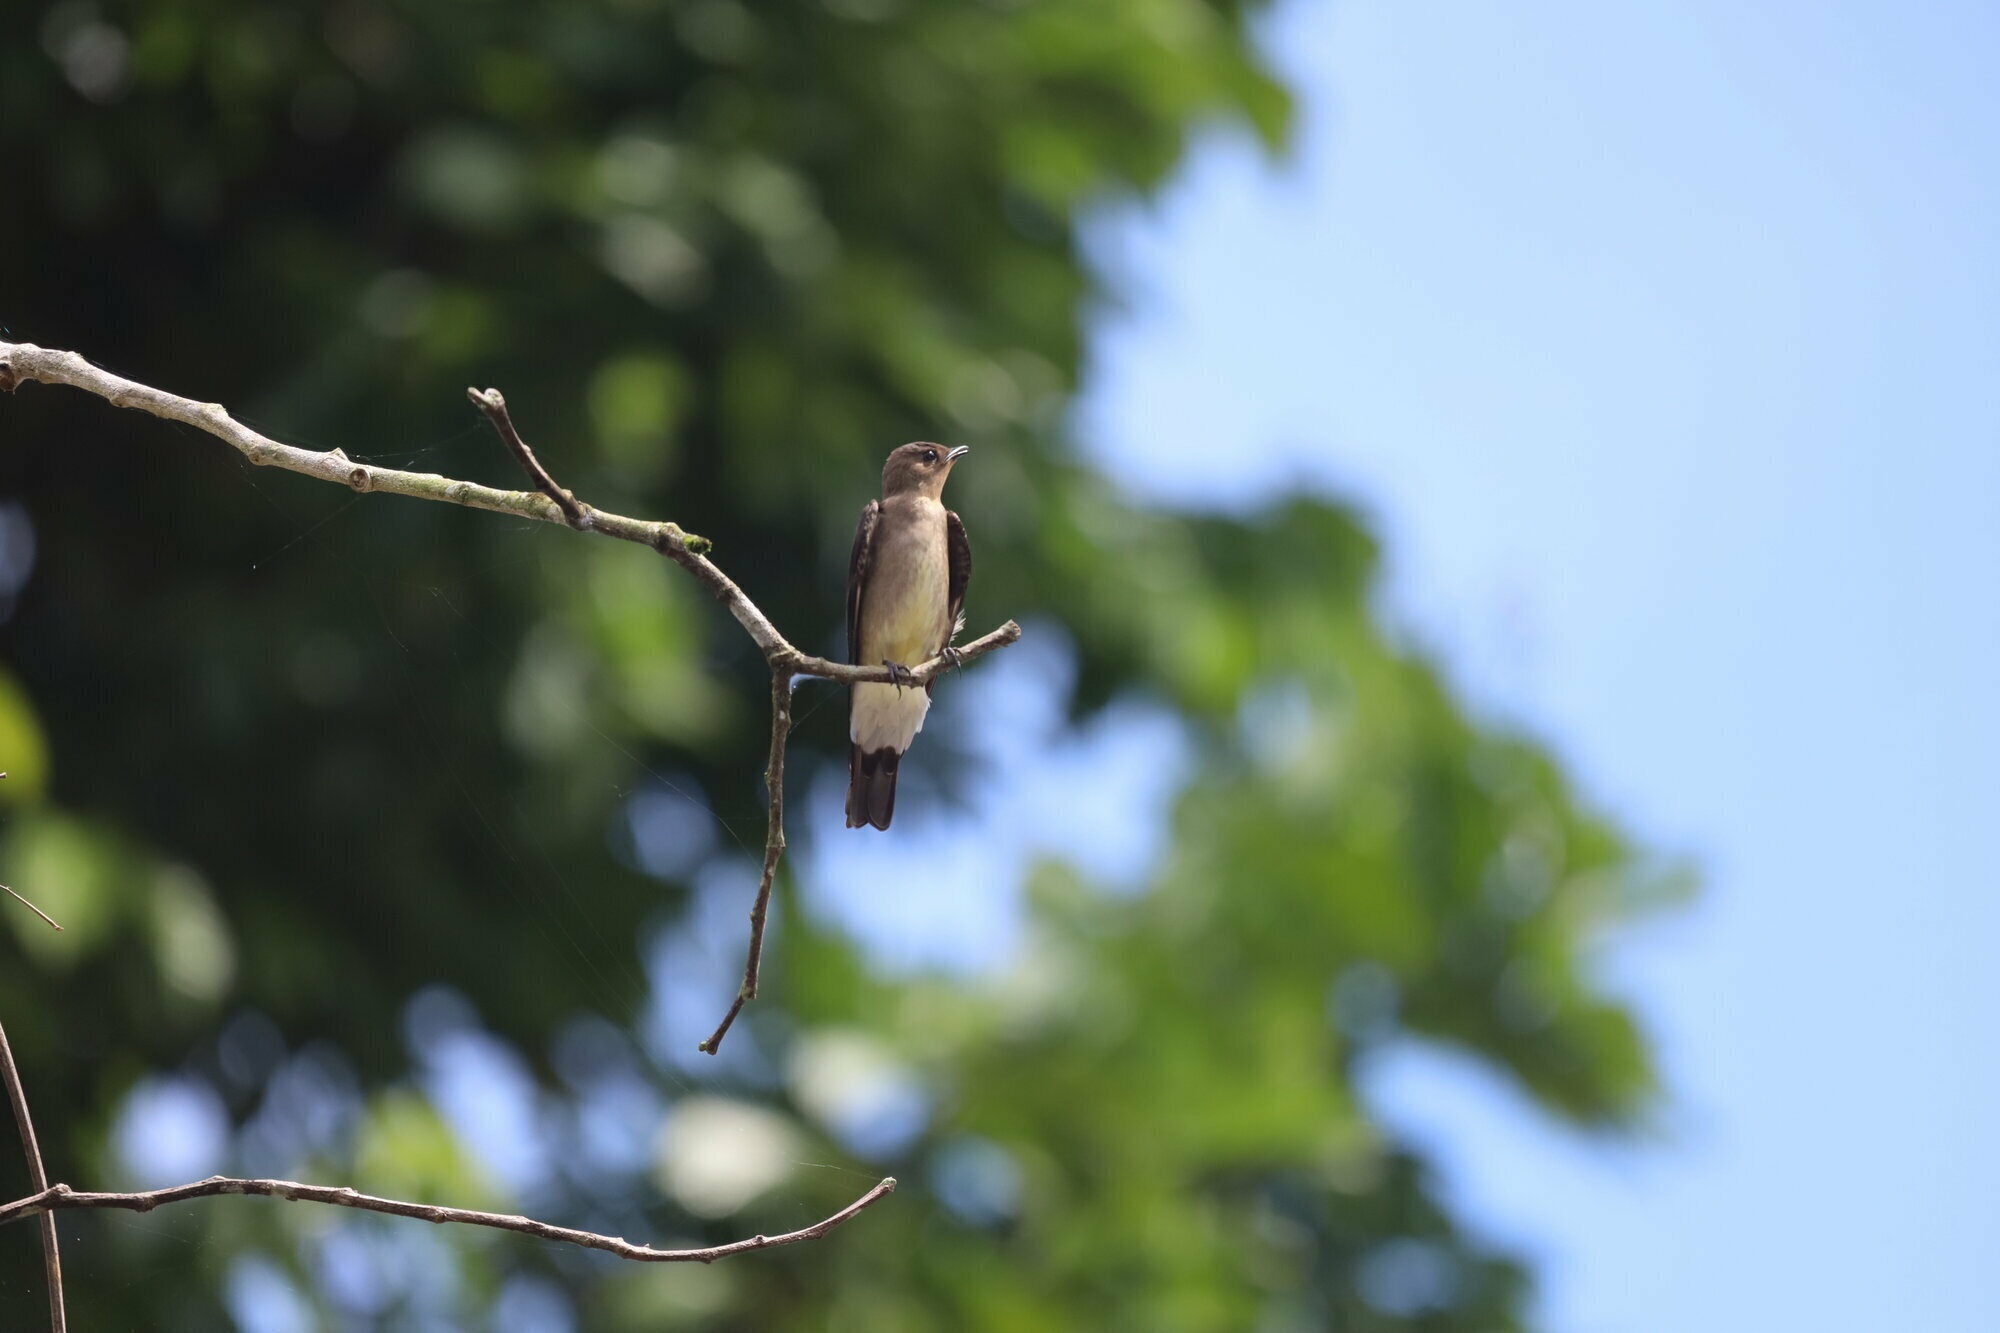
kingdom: Animalia
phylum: Chordata
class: Aves
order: Passeriformes
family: Hirundinidae
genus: Stelgidopteryx
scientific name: Stelgidopteryx ruficollis
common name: Southern rough-winged swallow
